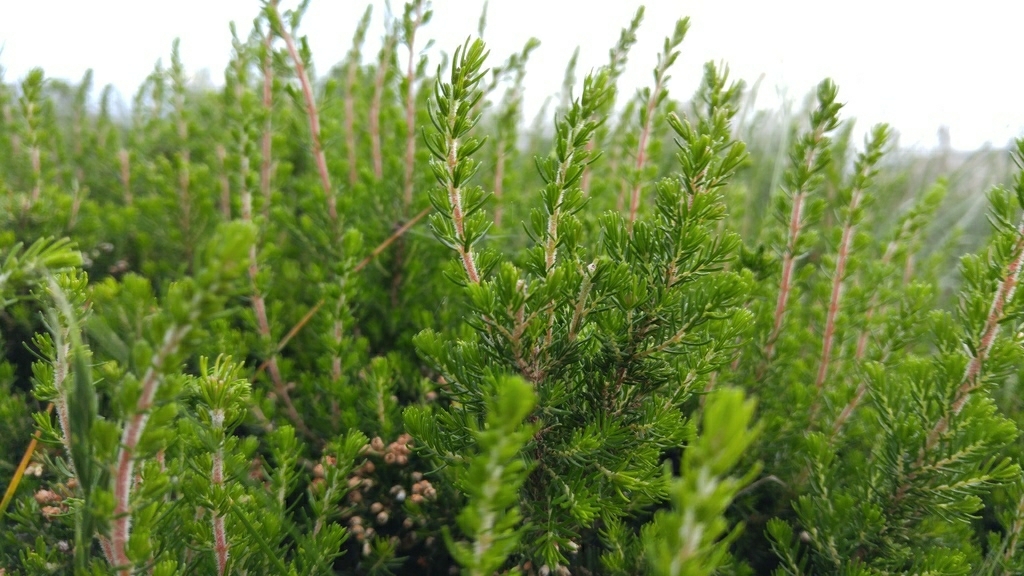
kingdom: Plantae
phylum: Tracheophyta
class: Magnoliopsida
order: Ericales
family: Ericaceae
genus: Erica
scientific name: Erica arborea
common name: Tree heath
